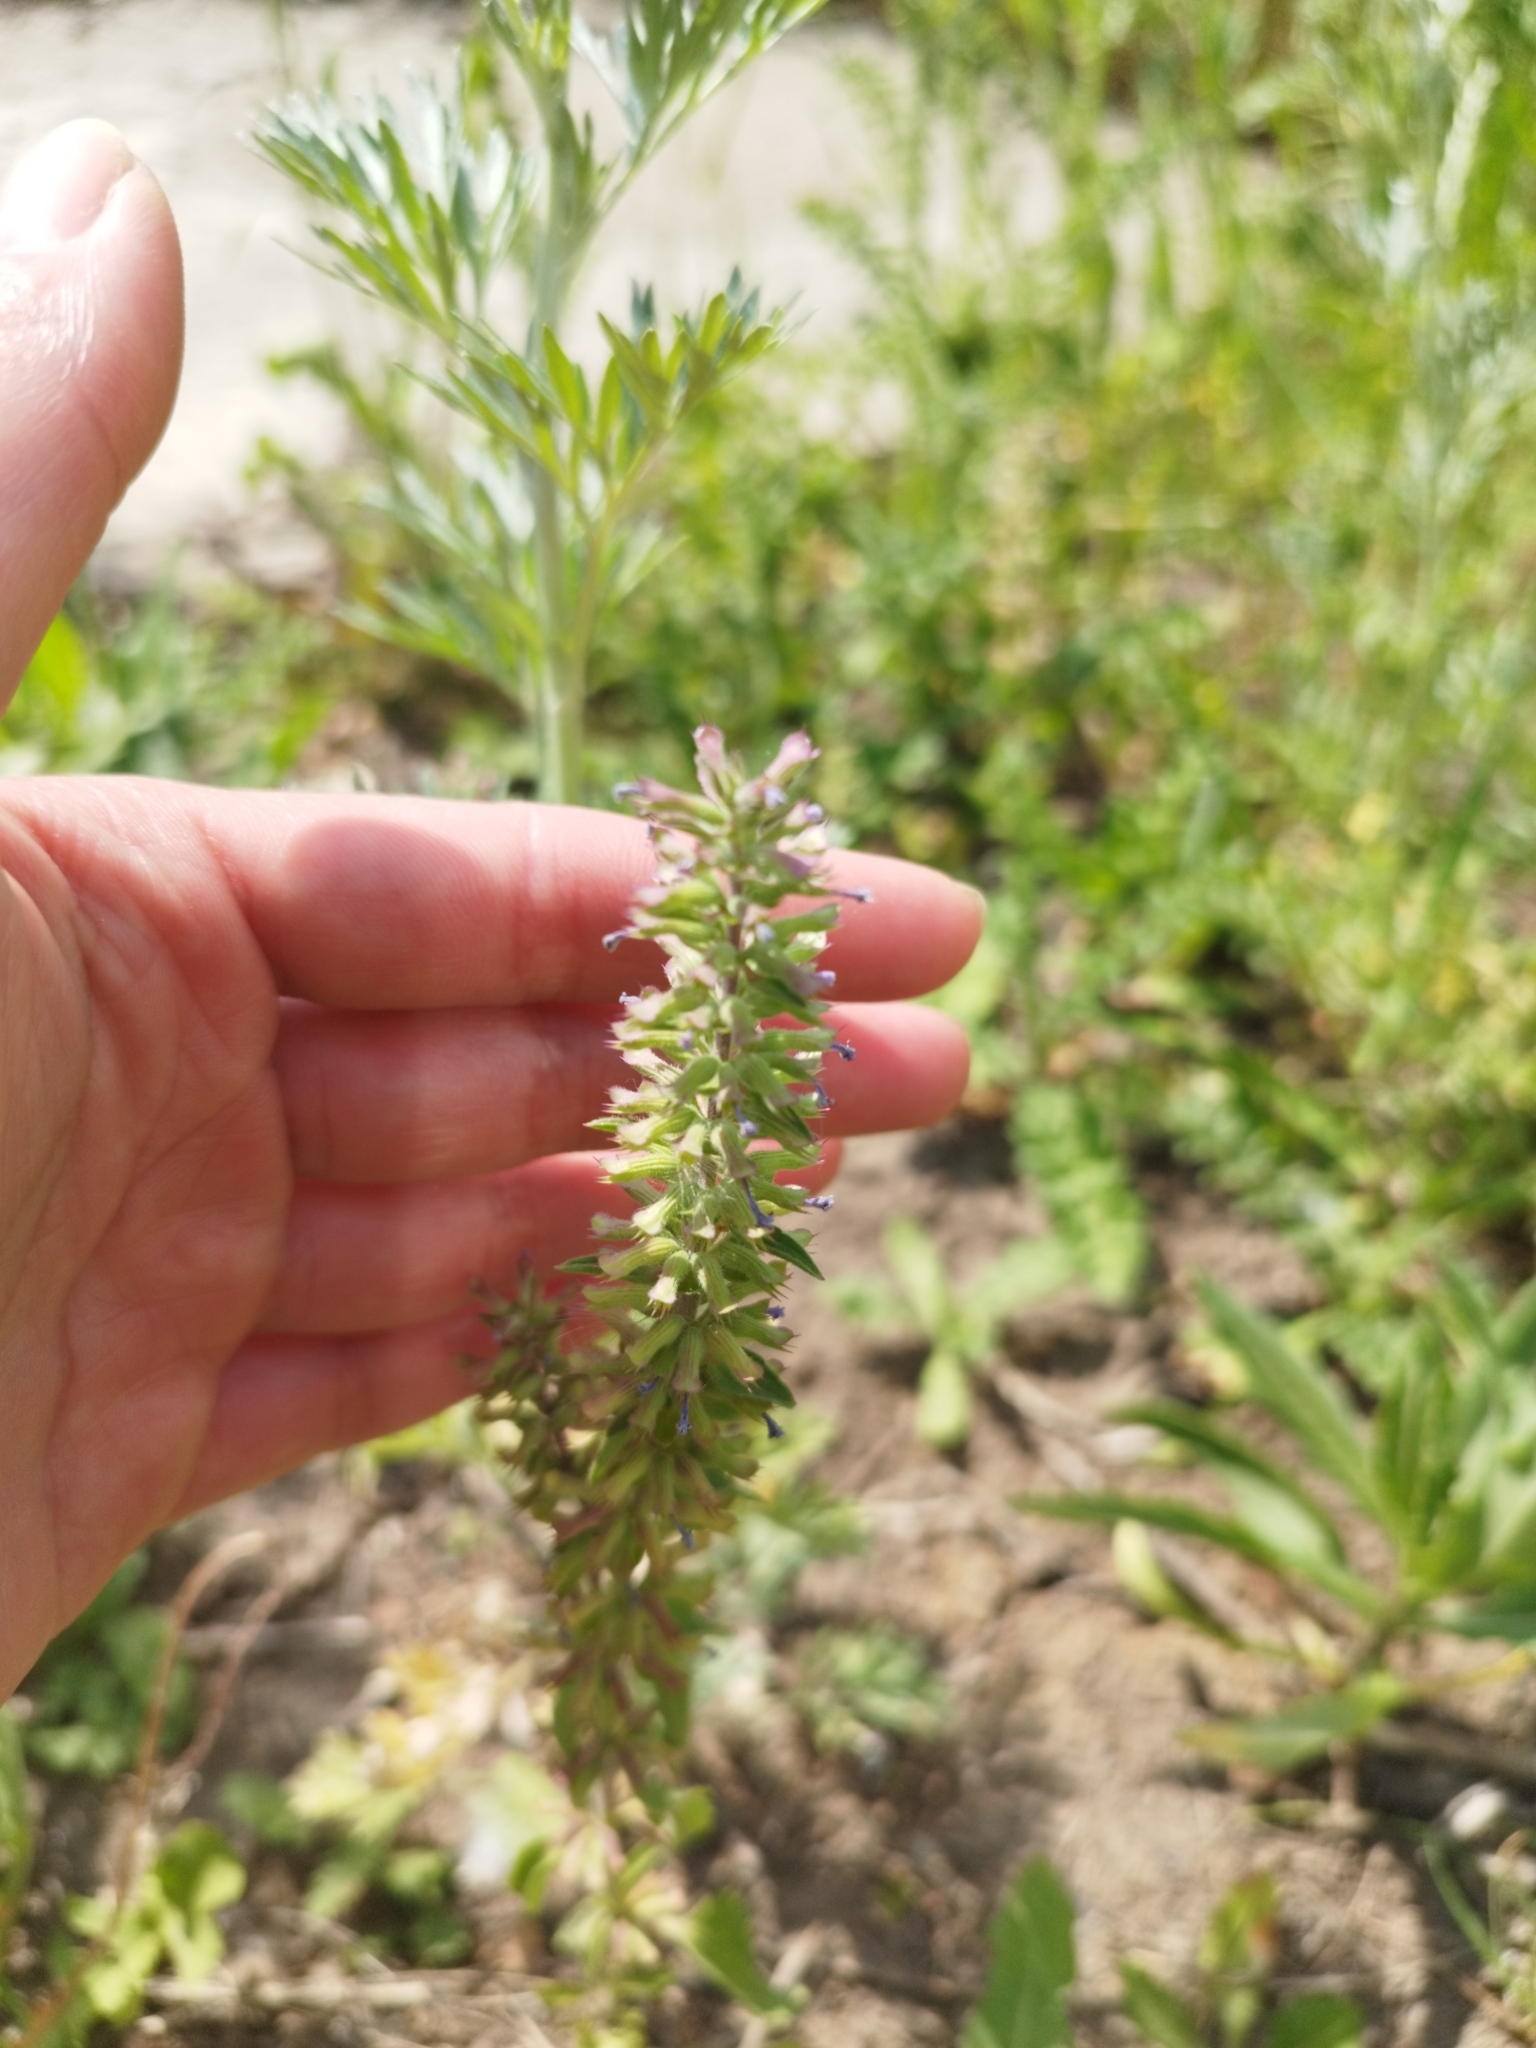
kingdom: Plantae
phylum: Tracheophyta
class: Magnoliopsida
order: Lamiales
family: Lamiaceae
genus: Dracocephalum
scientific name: Dracocephalum thymiflorum
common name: Thymeleaf dragonhead
